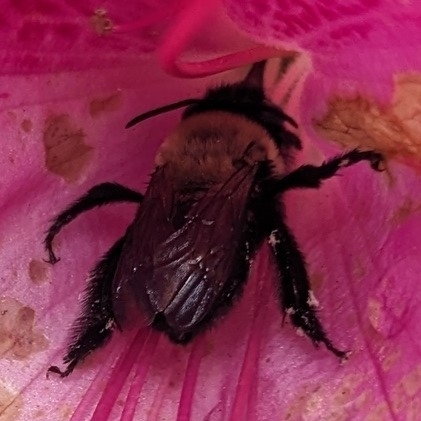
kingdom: Animalia
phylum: Arthropoda
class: Insecta
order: Hymenoptera
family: Apidae
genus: Habropoda
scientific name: Habropoda laboriosa
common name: Southeastern blueberry bee
